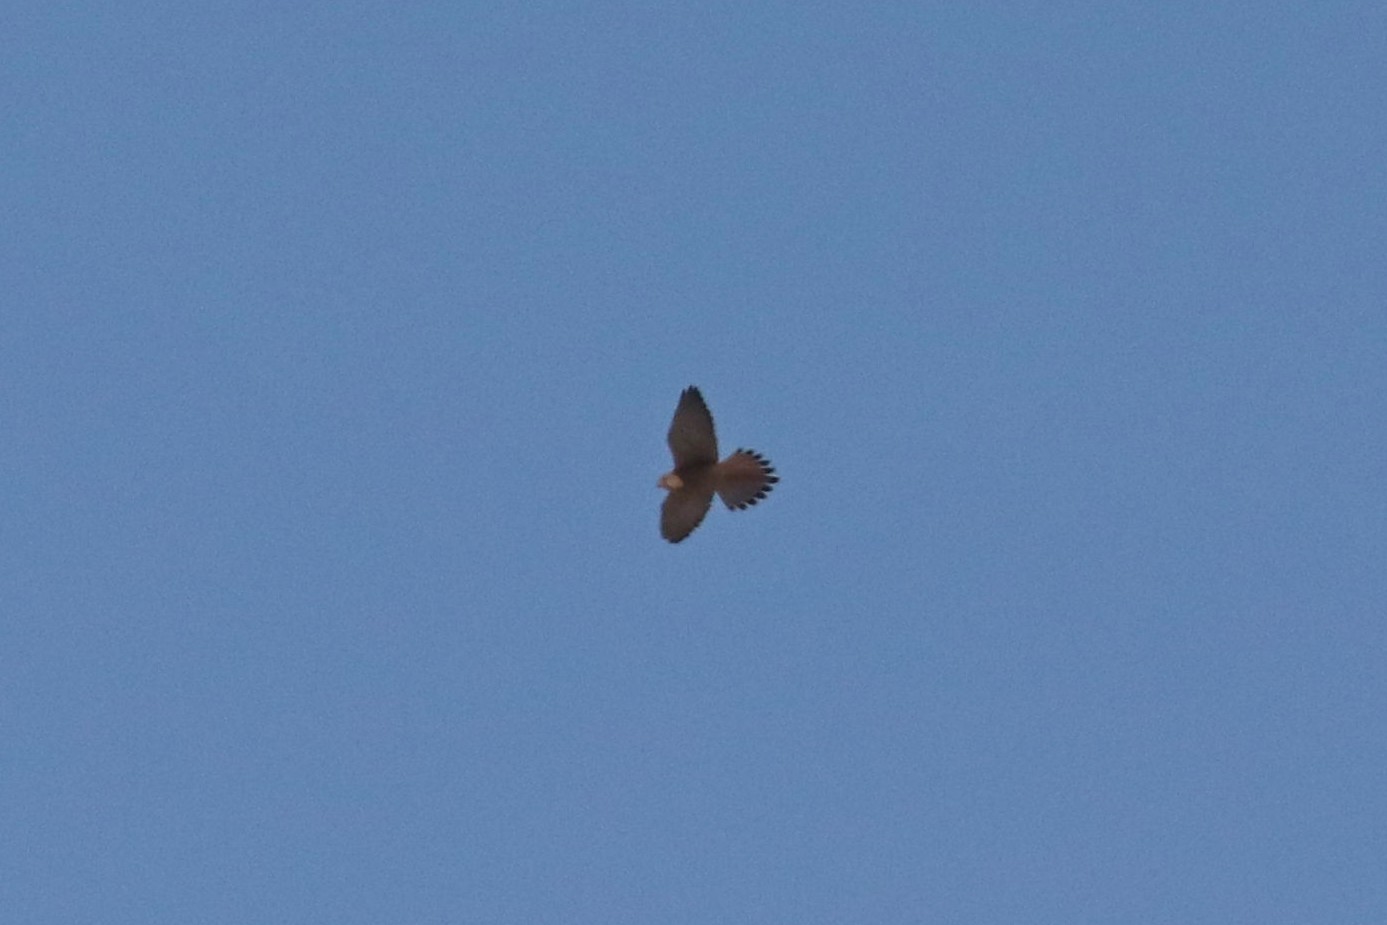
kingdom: Animalia
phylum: Chordata
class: Aves
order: Falconiformes
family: Falconidae
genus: Falco
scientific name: Falco tinnunculus
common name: Common kestrel
